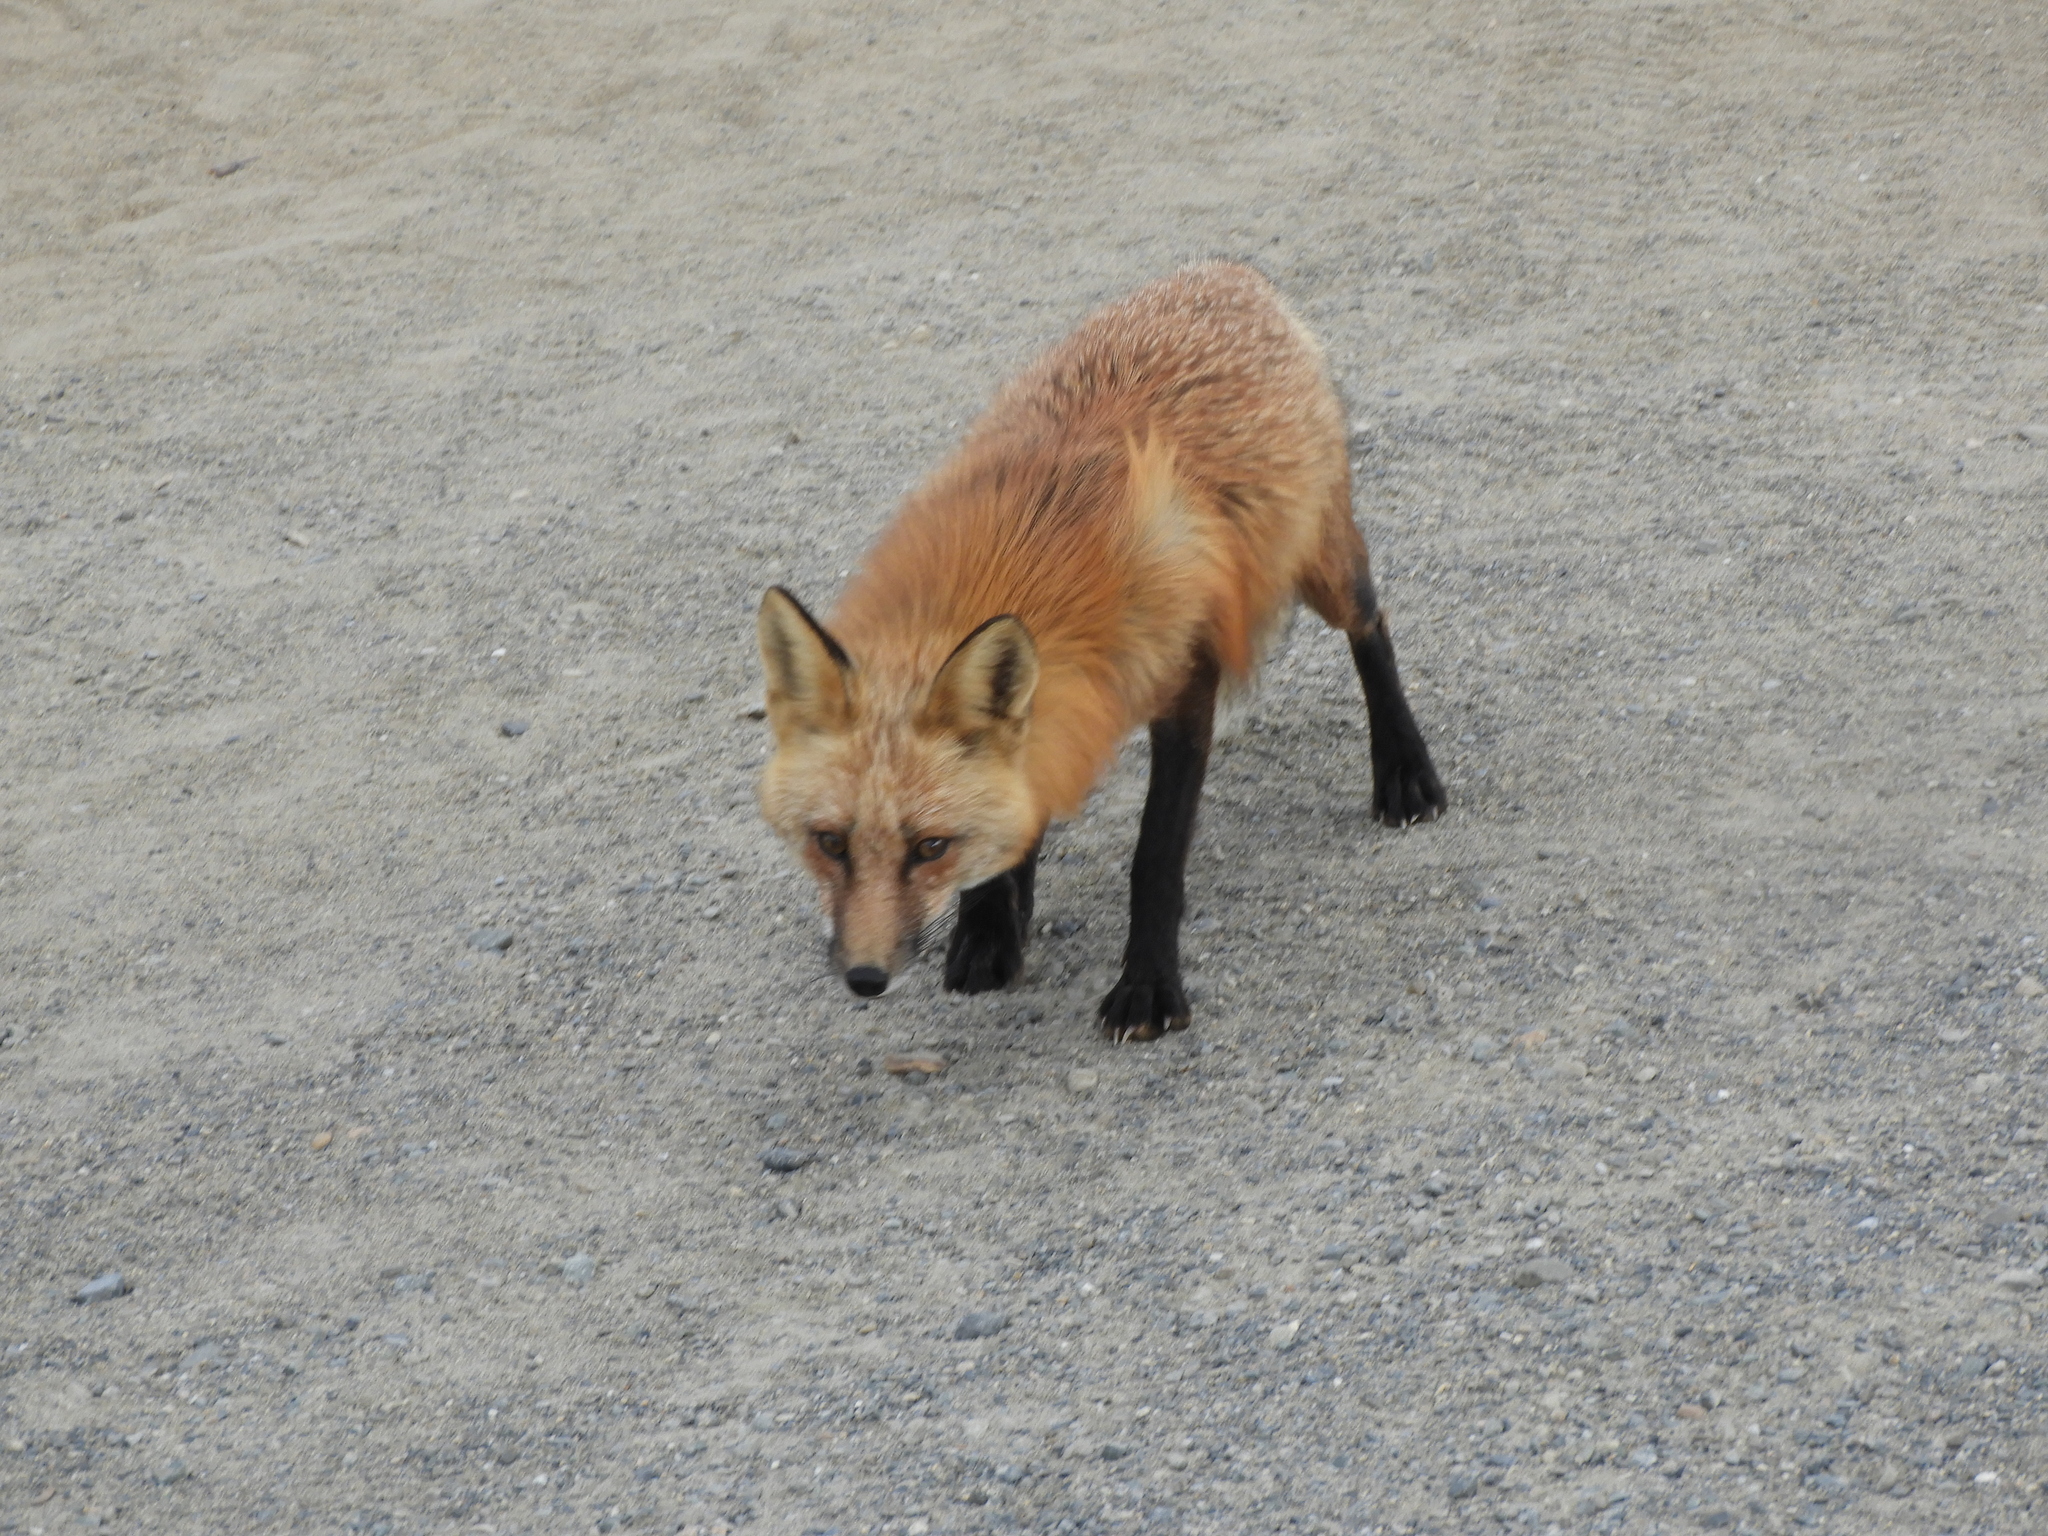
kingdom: Animalia
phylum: Chordata
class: Mammalia
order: Carnivora
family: Canidae
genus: Vulpes
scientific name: Vulpes vulpes
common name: Red fox
